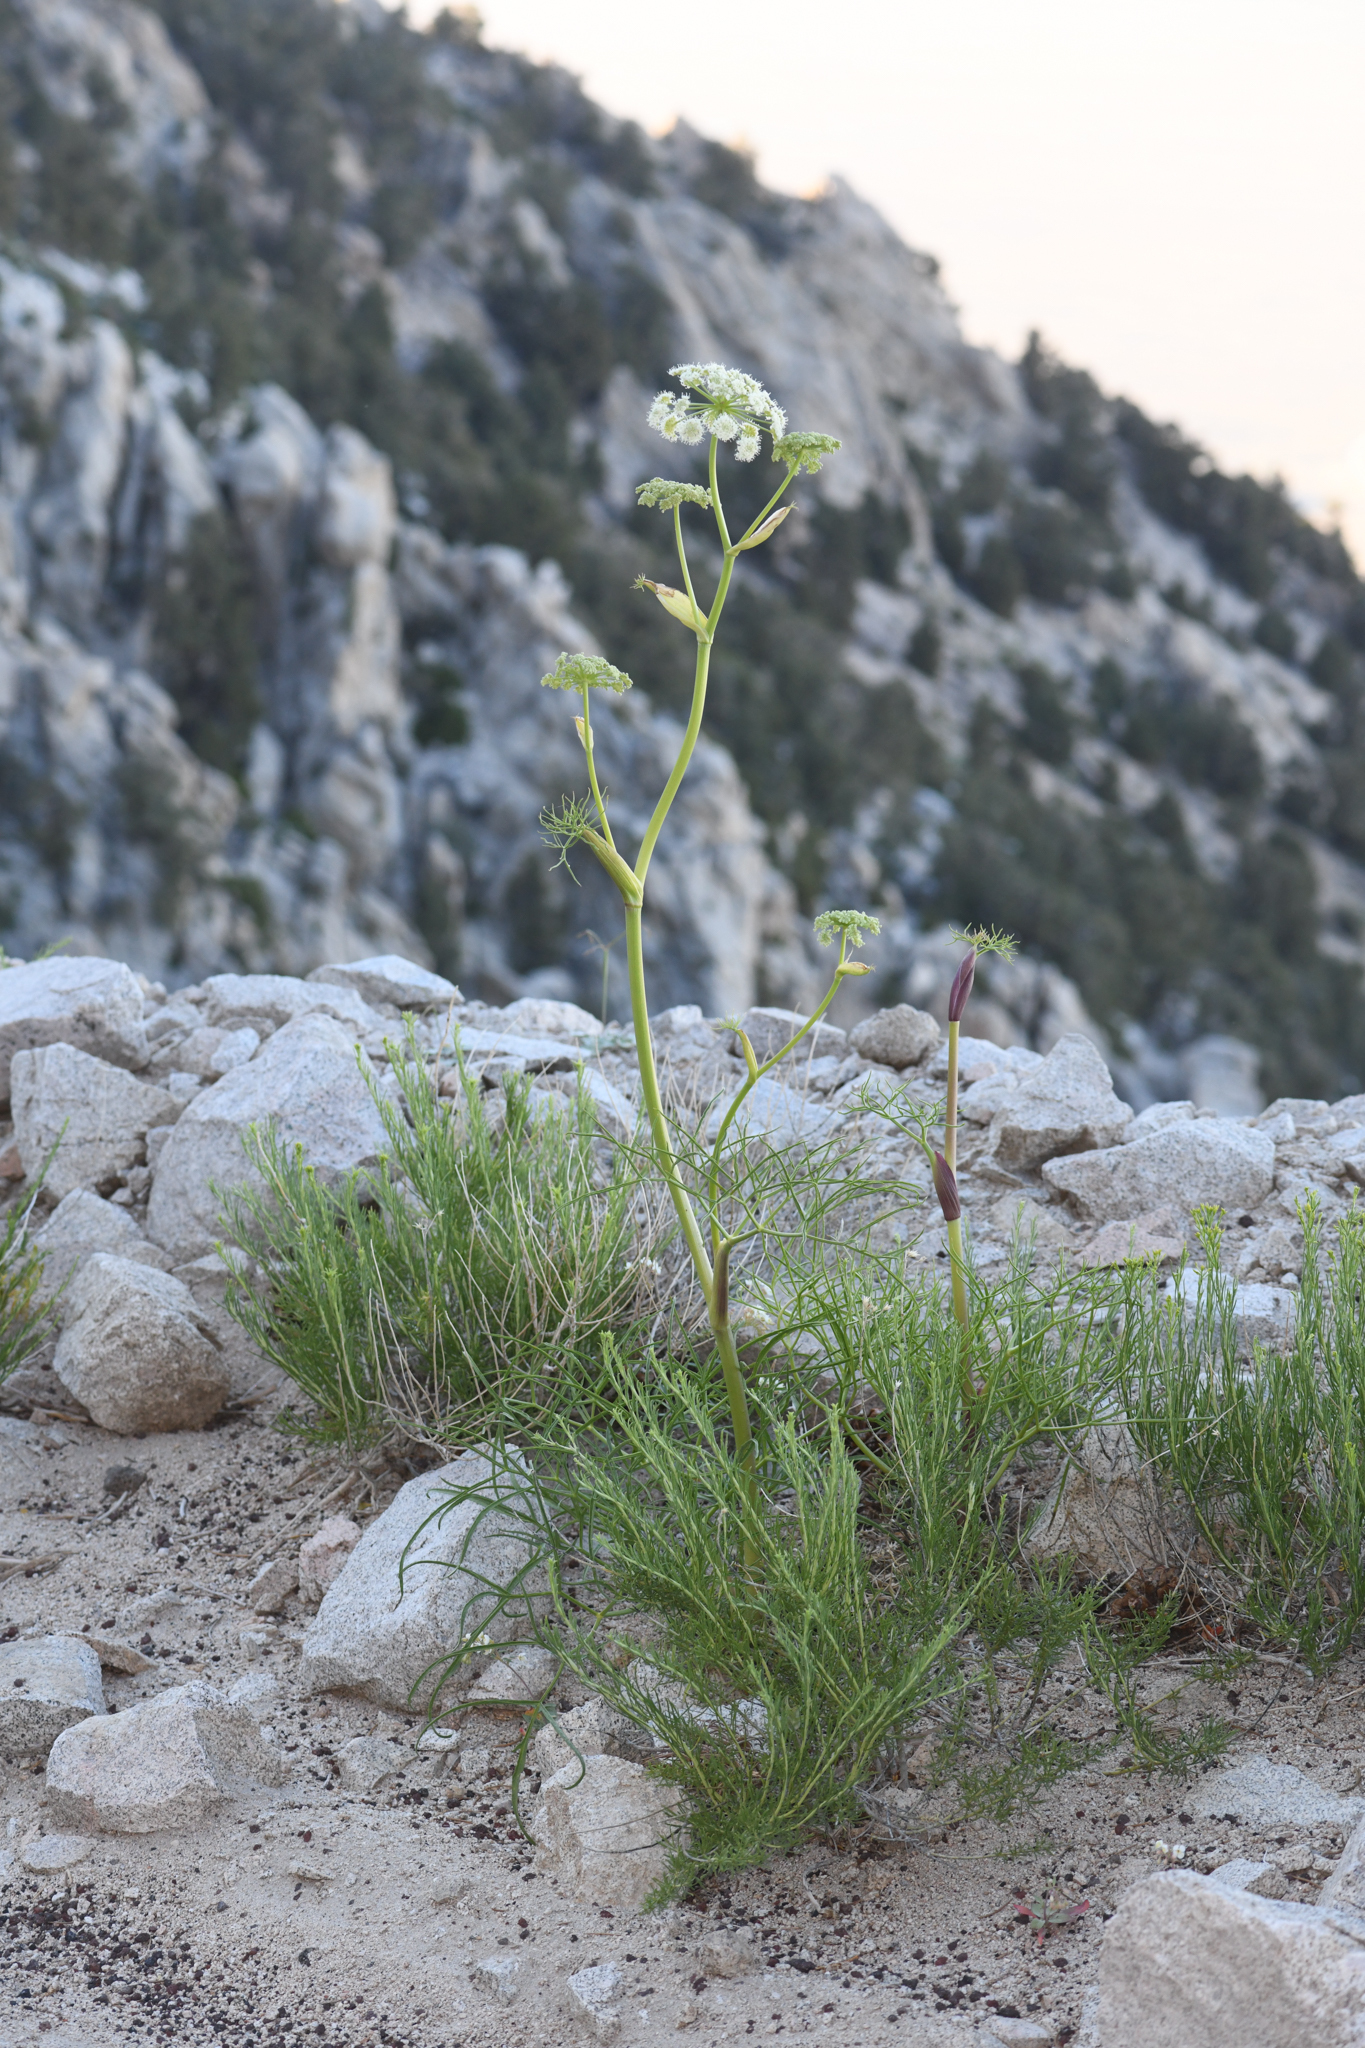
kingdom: Plantae
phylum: Tracheophyta
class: Magnoliopsida
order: Apiales
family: Apiaceae
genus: Angelica
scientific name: Angelica lineariloba
